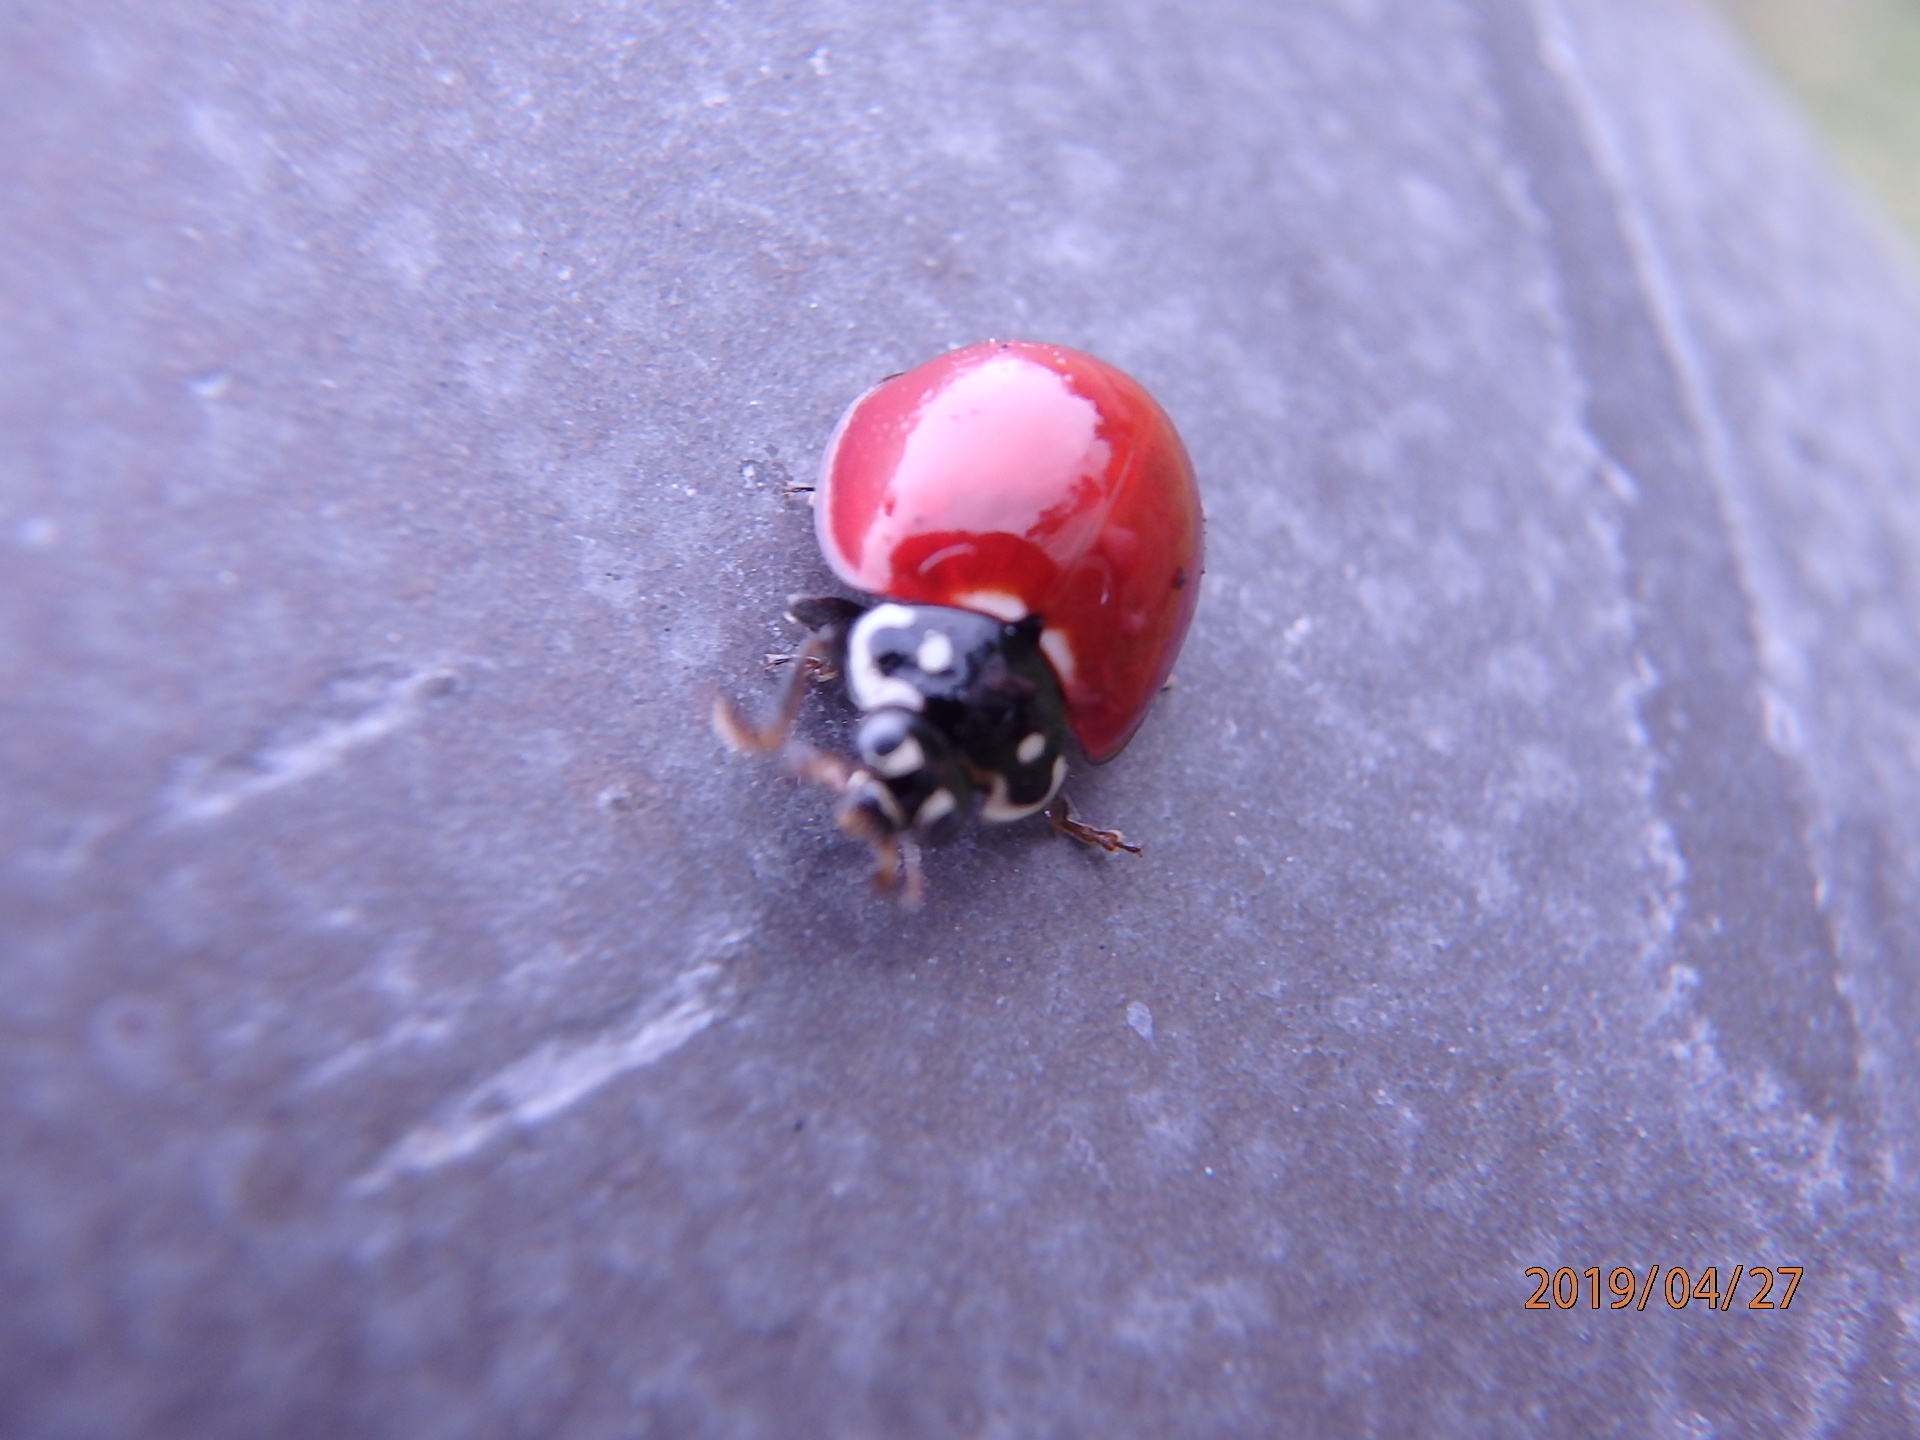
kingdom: Animalia
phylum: Arthropoda
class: Insecta
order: Coleoptera
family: Coccinellidae
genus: Cycloneda
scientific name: Cycloneda sanguinea
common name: Ladybird beetle
